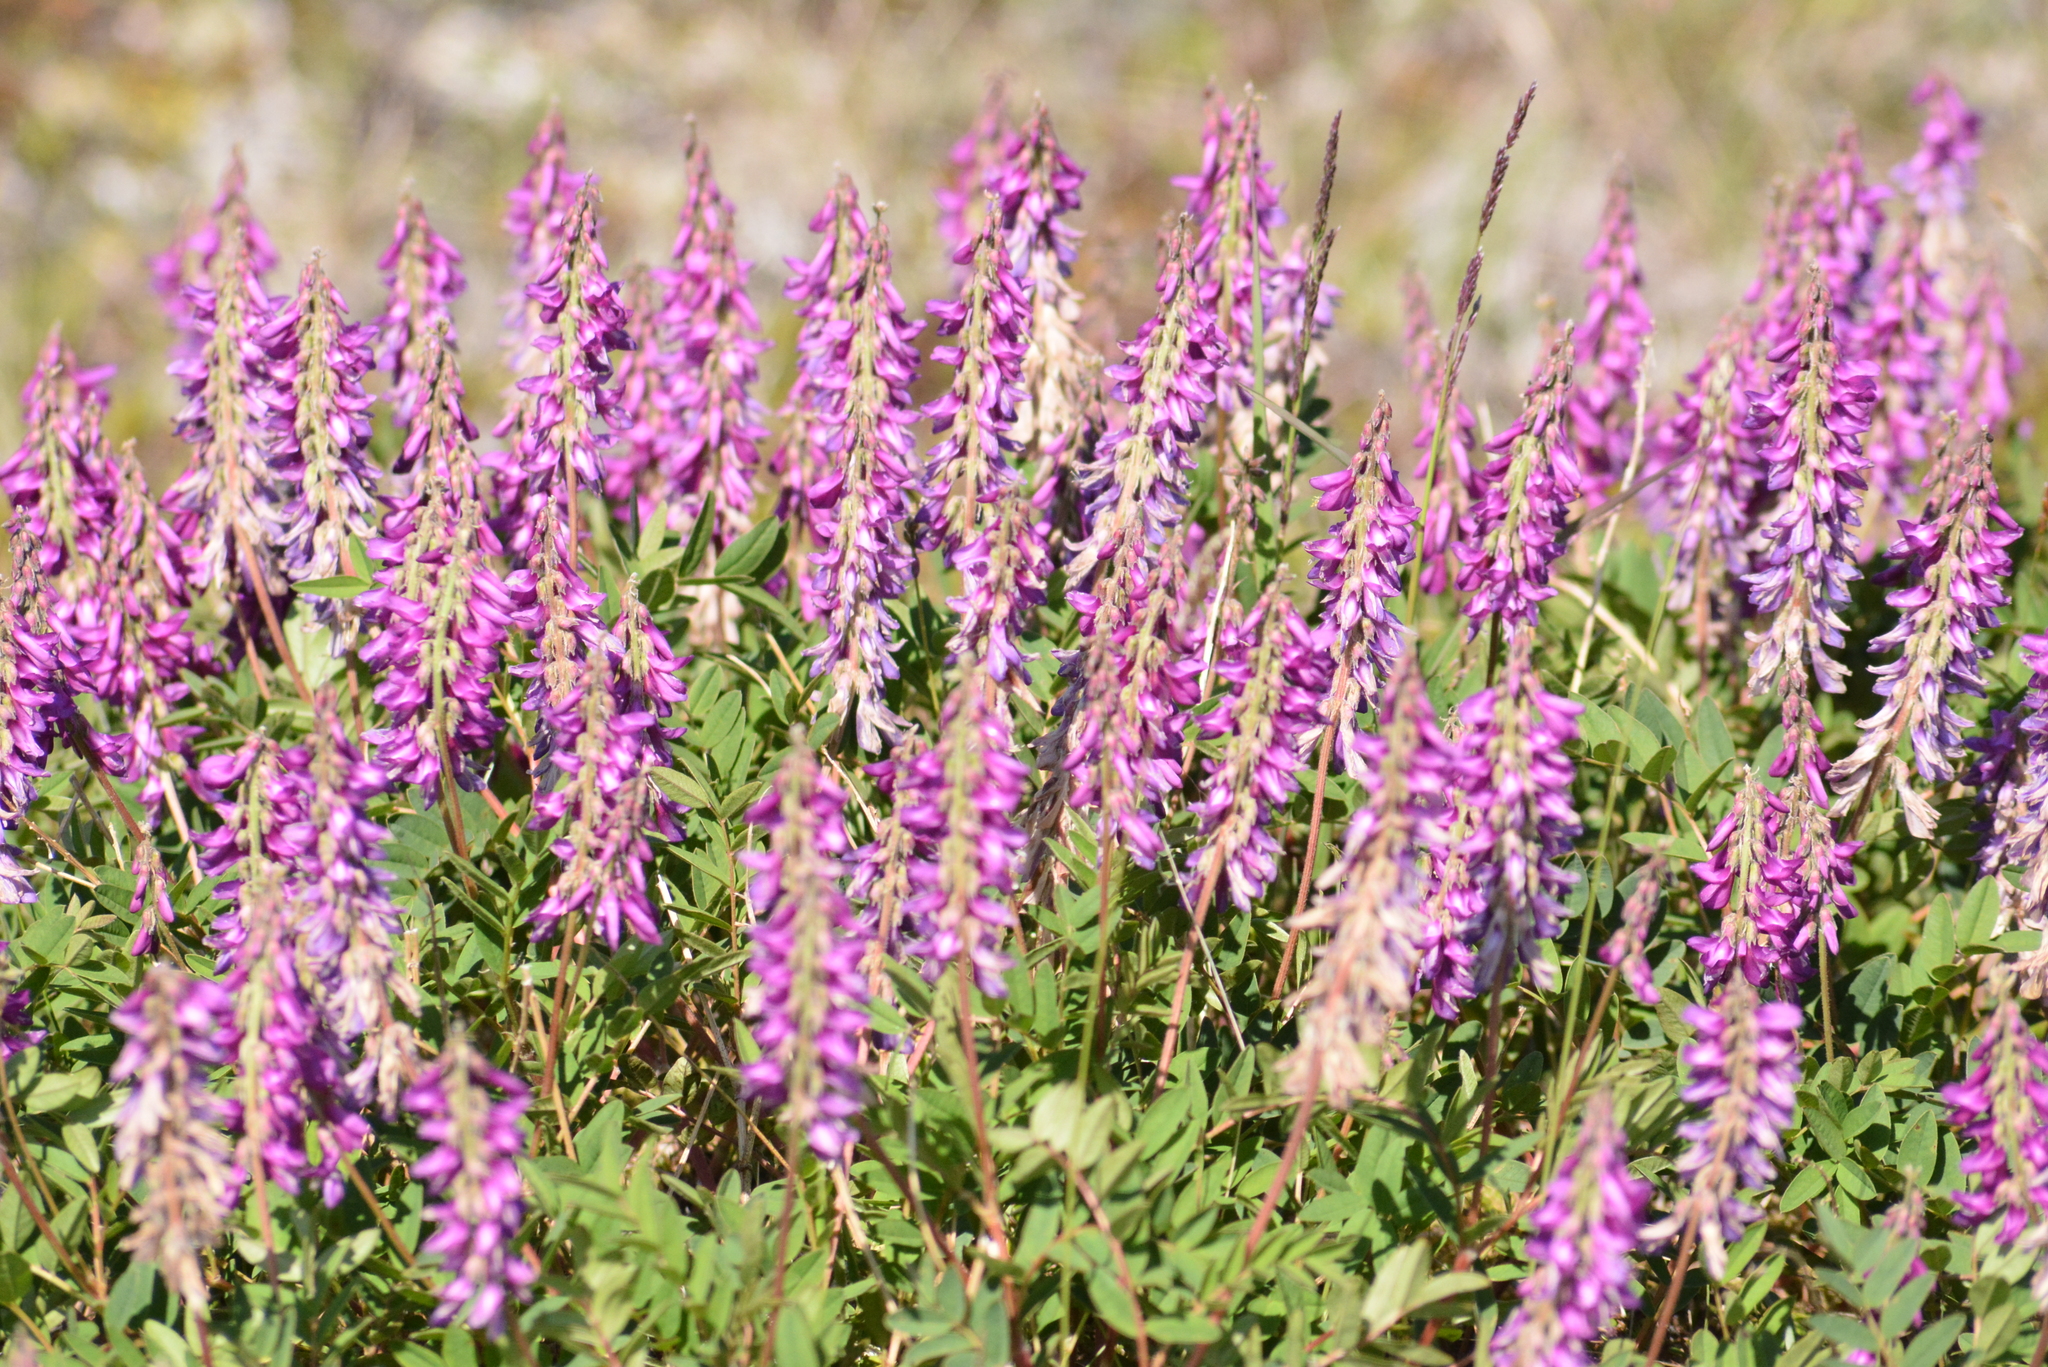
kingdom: Plantae
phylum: Tracheophyta
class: Magnoliopsida
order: Fabales
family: Fabaceae
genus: Hedysarum
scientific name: Hedysarum hedysaroides
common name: Alpine french-honeysuckle
